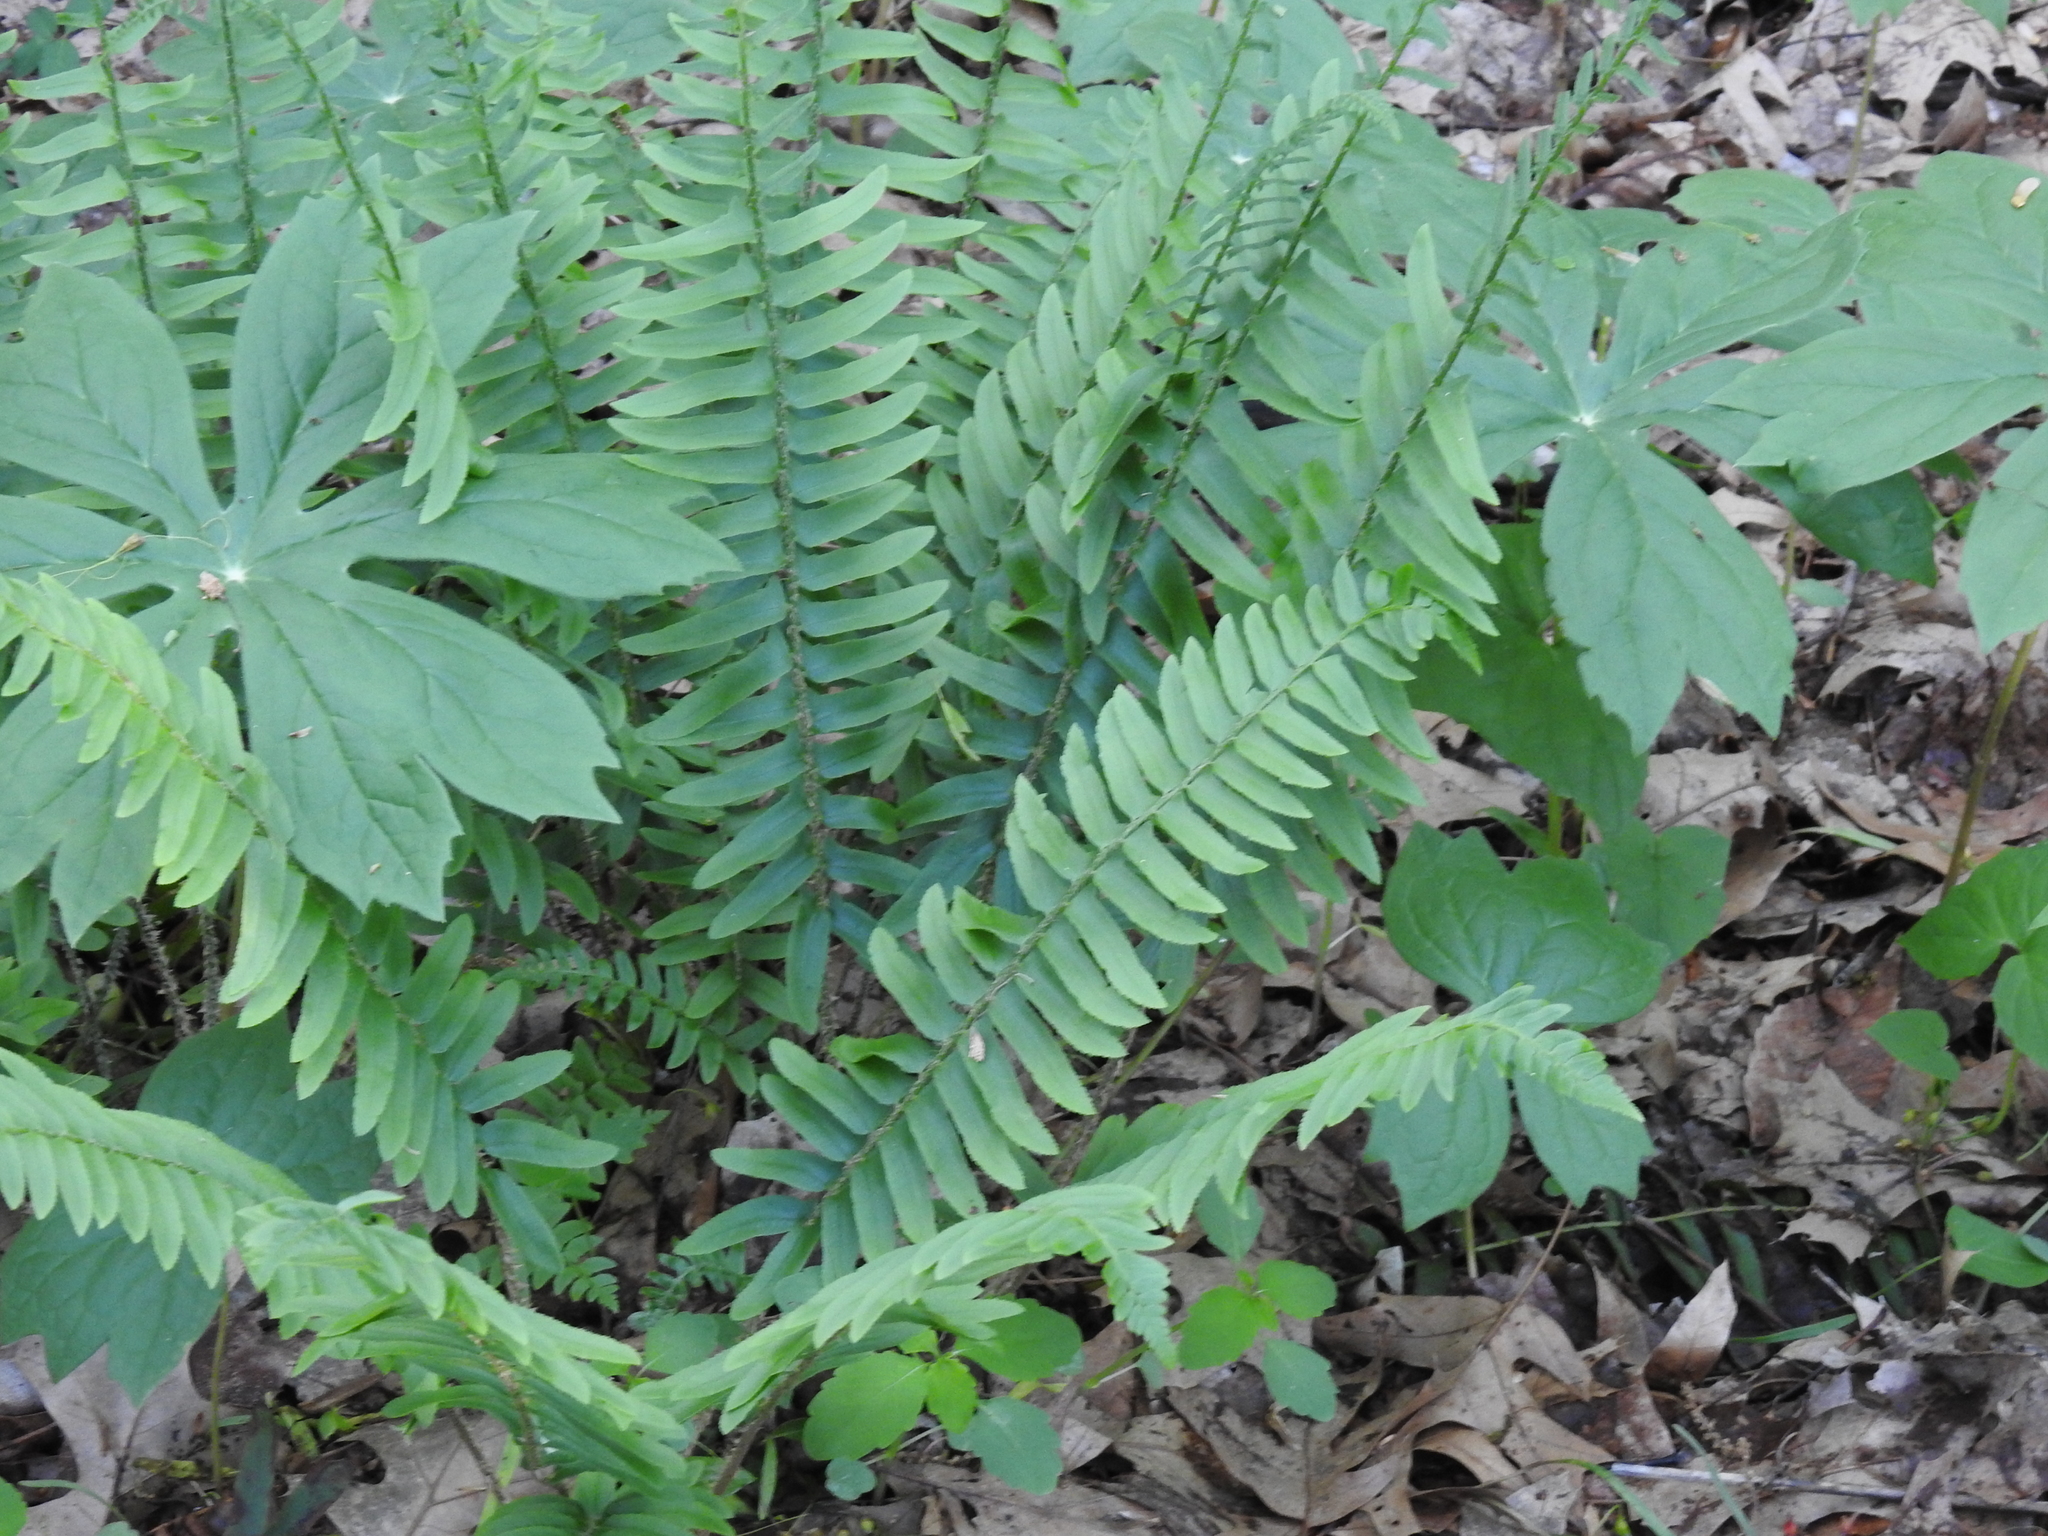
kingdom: Plantae
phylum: Tracheophyta
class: Polypodiopsida
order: Polypodiales
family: Dryopteridaceae
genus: Polystichum
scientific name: Polystichum acrostichoides
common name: Christmas fern
